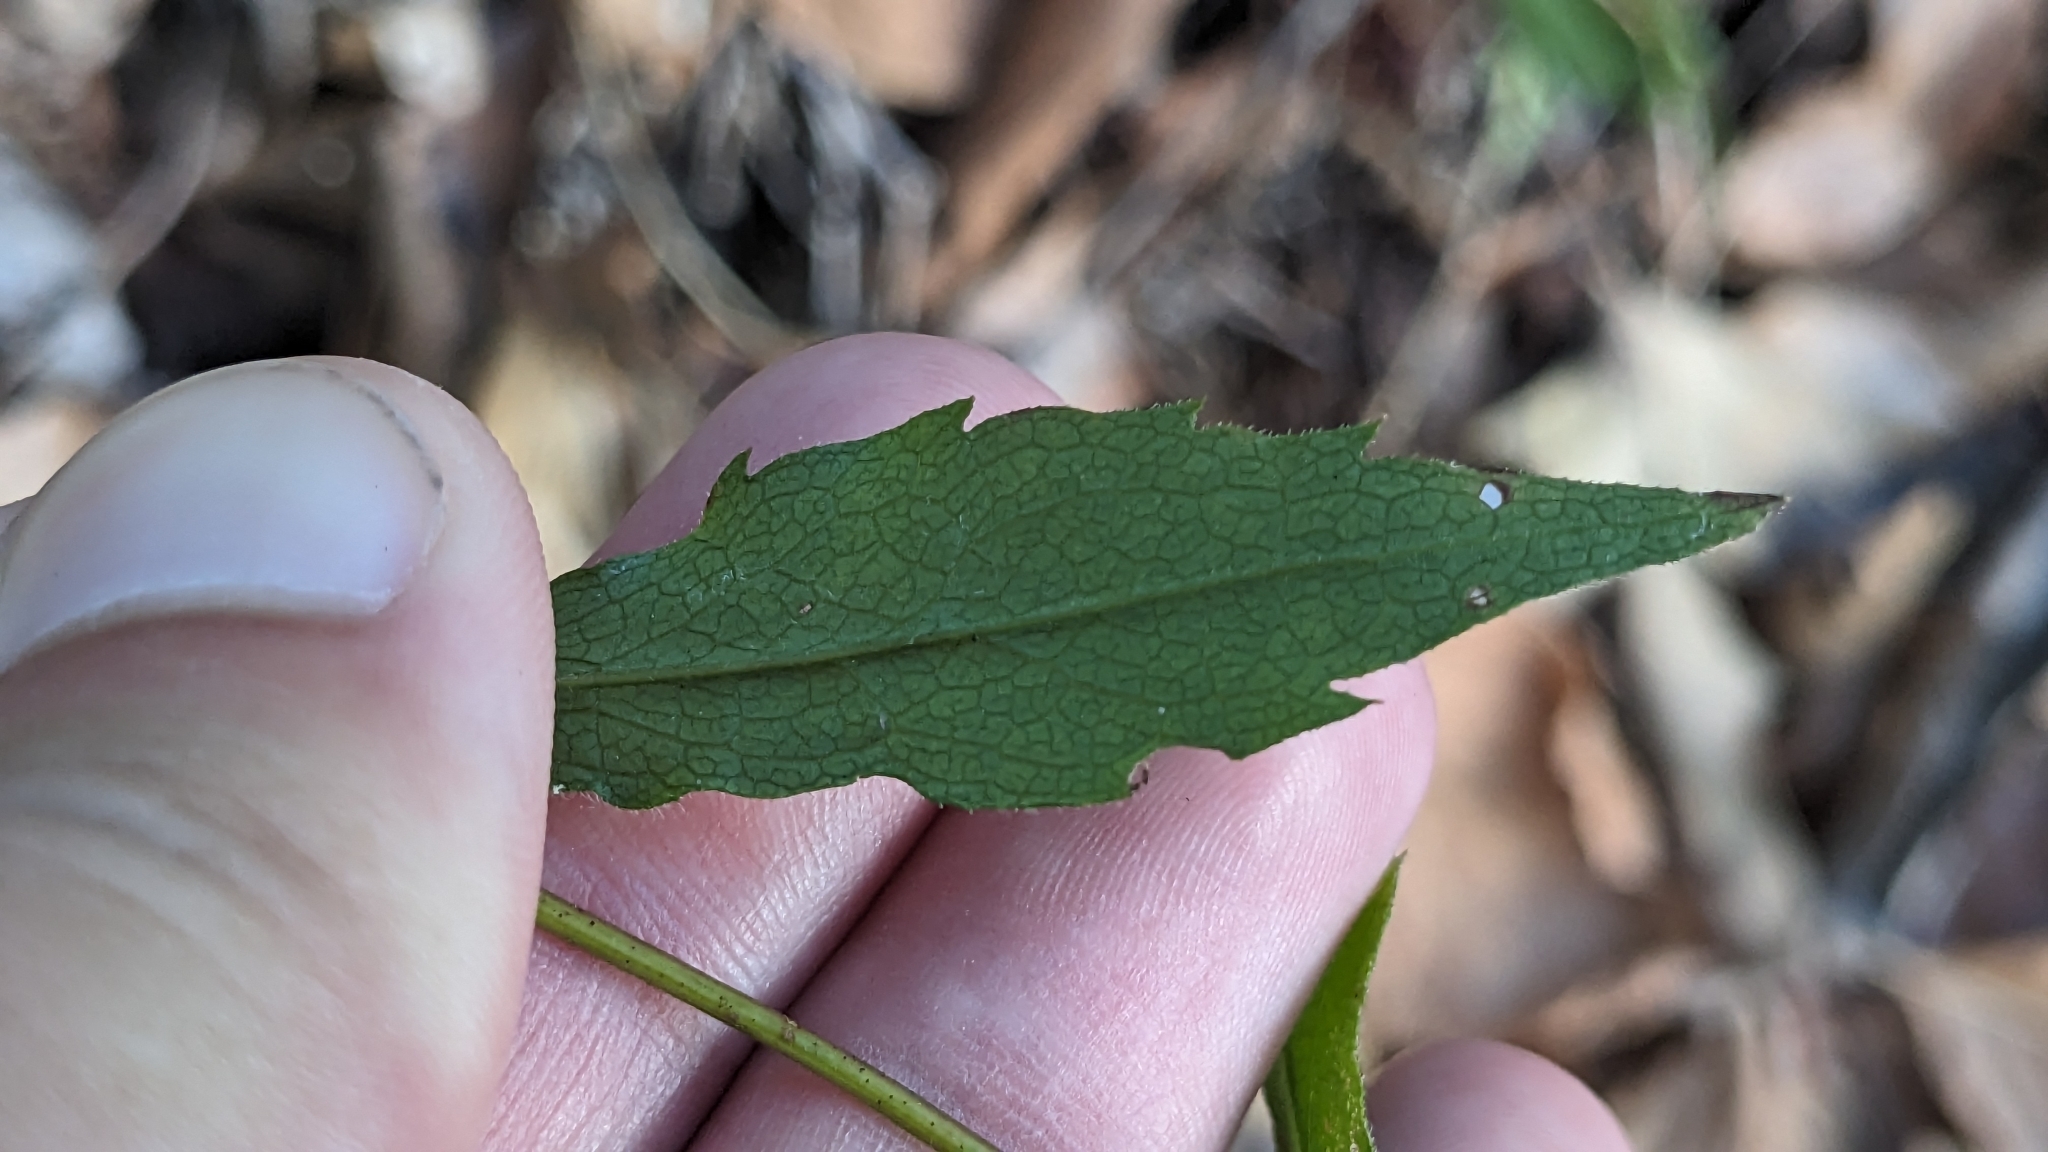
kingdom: Plantae
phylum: Tracheophyta
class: Magnoliopsida
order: Asterales
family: Asteraceae
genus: Solidago
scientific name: Solidago caesia
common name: Woodland goldenrod
